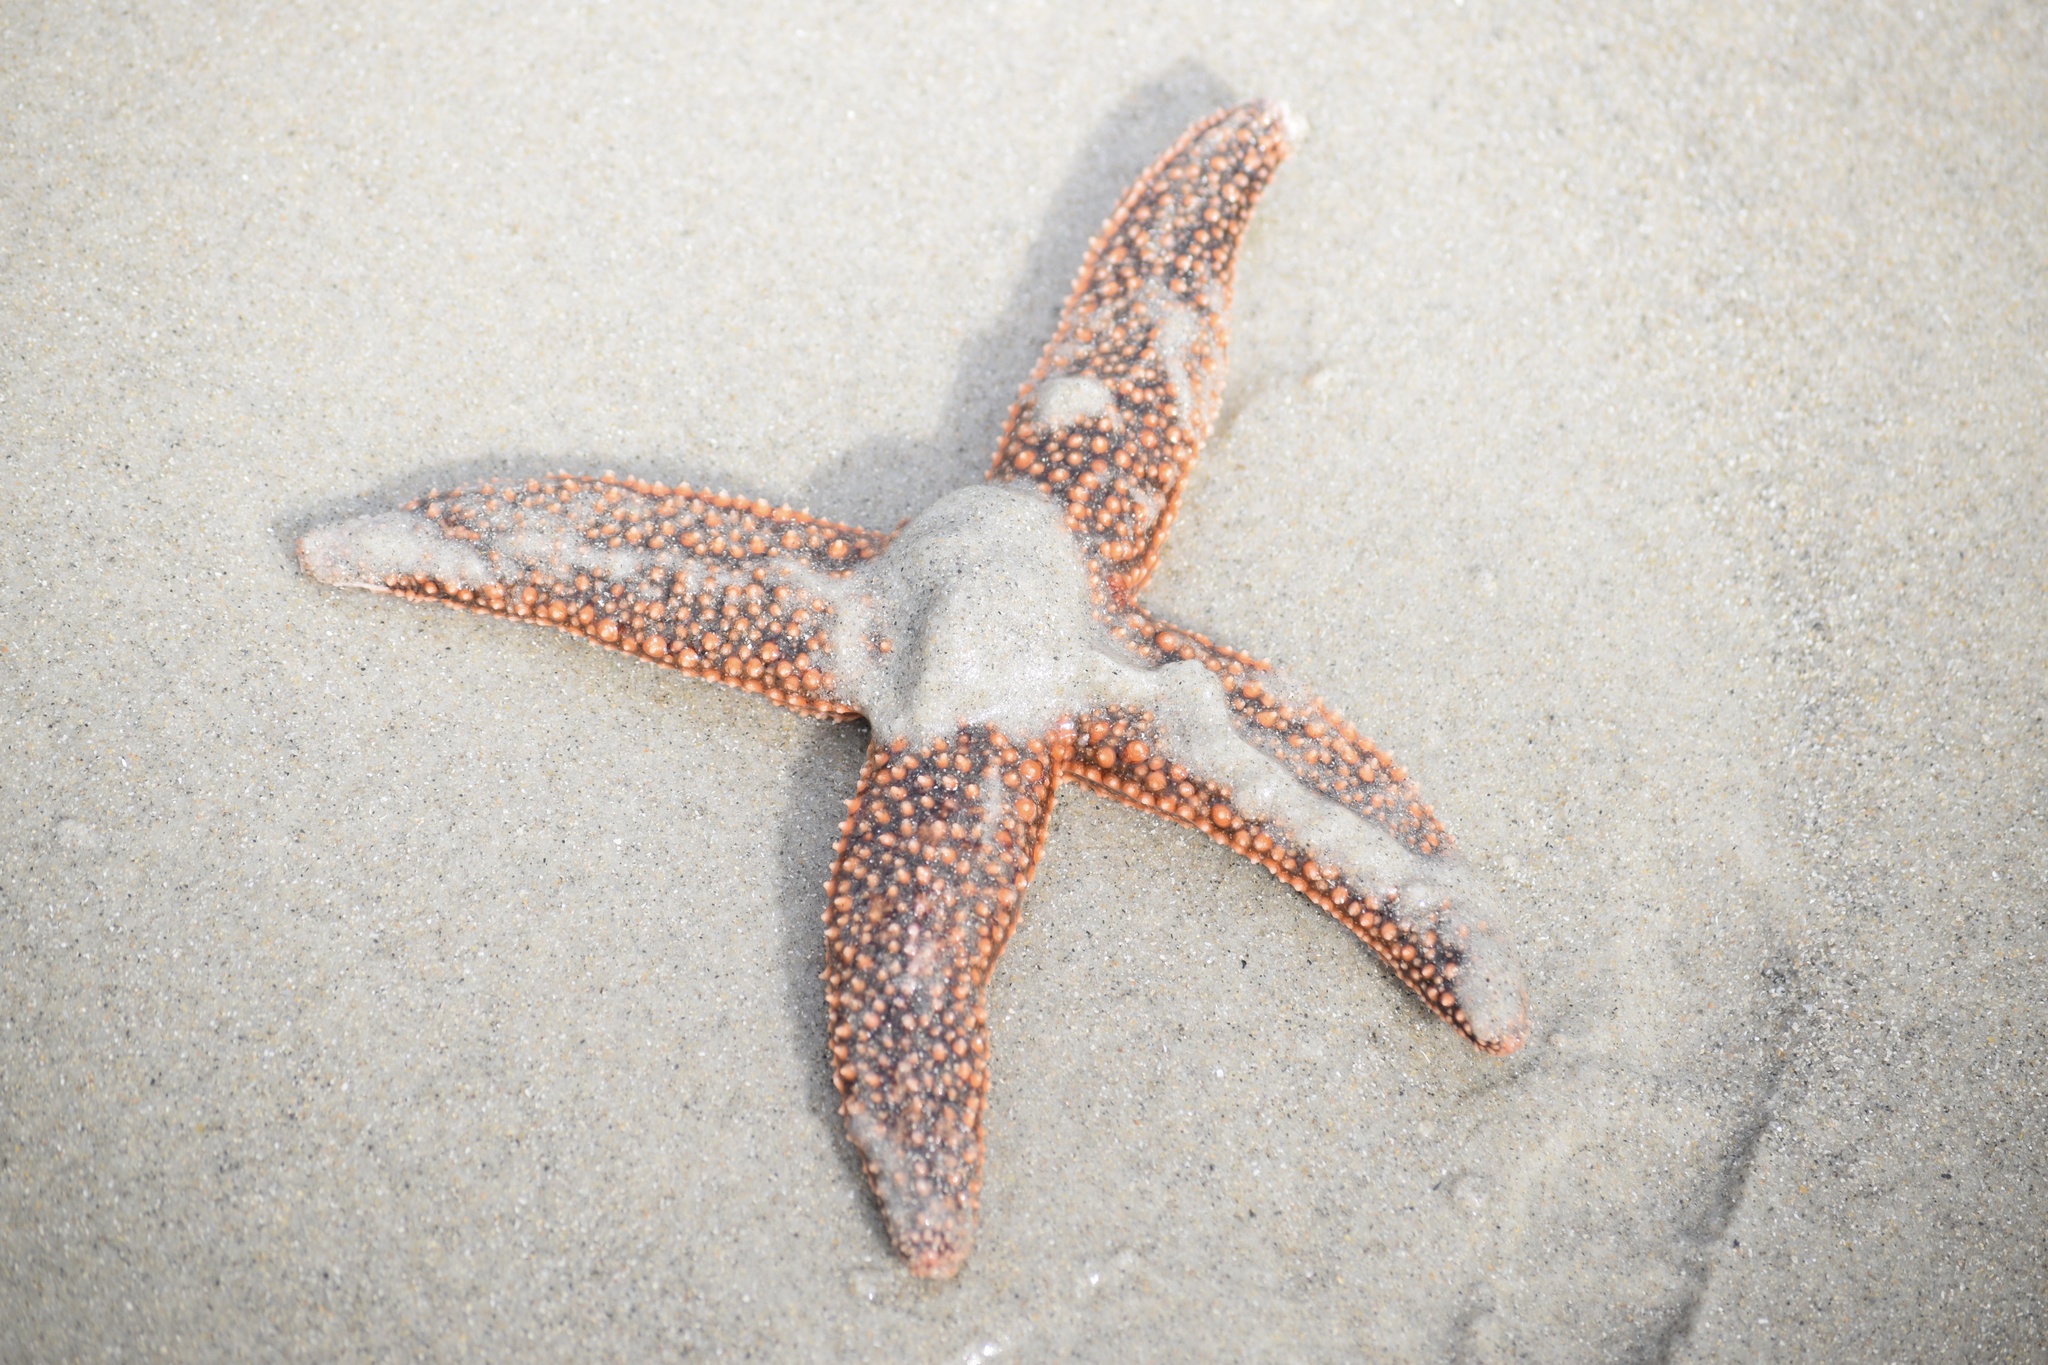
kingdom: Animalia
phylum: Echinodermata
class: Asteroidea
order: Forcipulatida
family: Asteriidae
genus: Asterias
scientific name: Asterias forbesi
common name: Forbes's sea star
